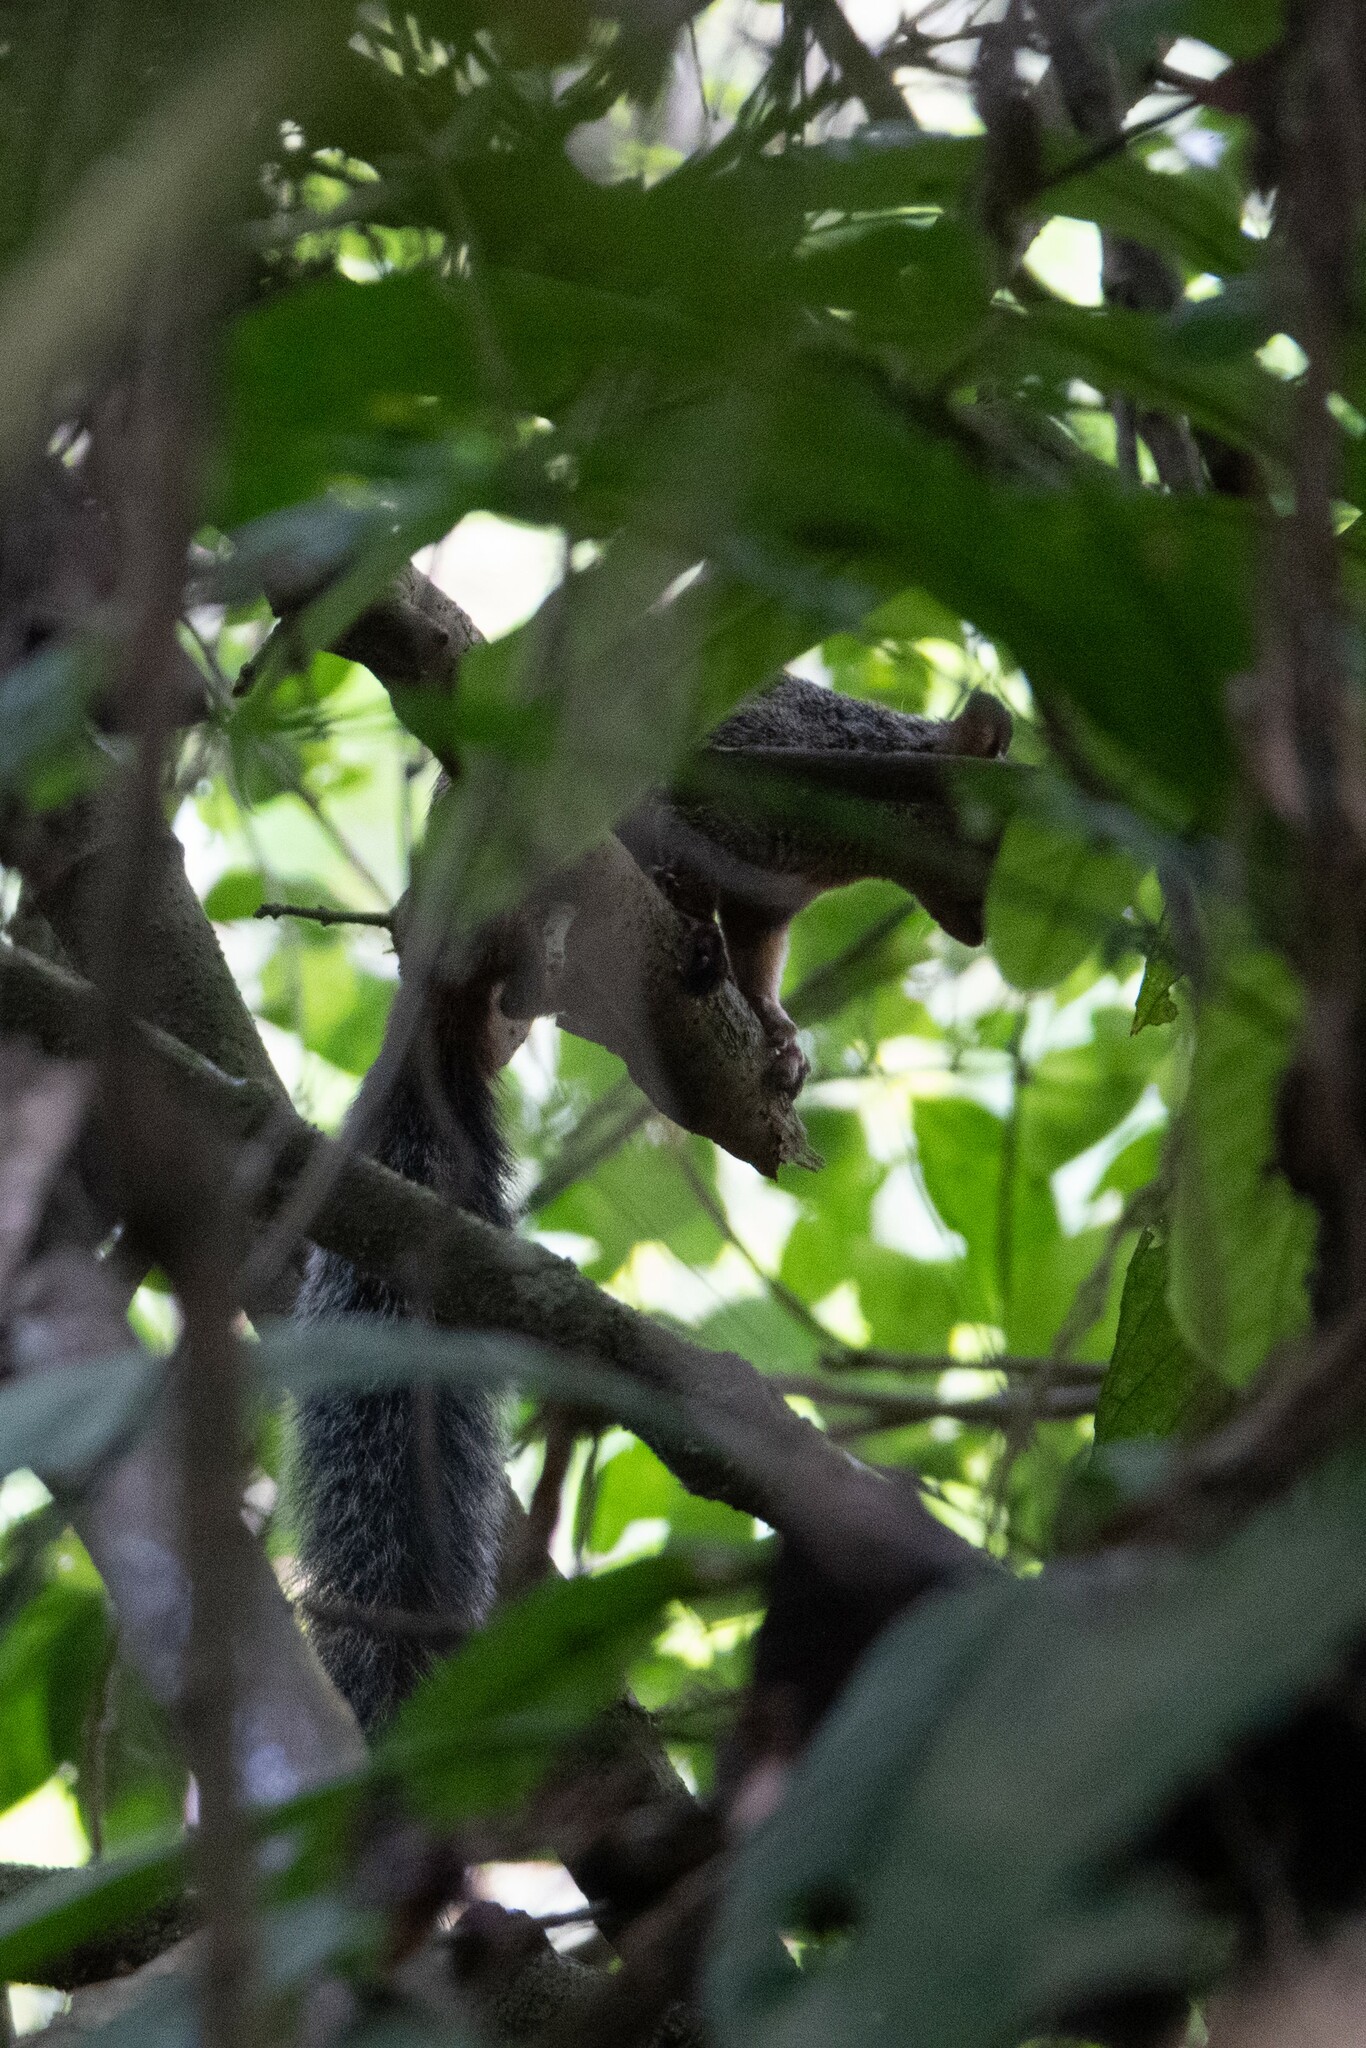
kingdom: Animalia
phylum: Chordata
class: Mammalia
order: Rodentia
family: Sciuridae
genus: Sciurus
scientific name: Sciurus stramineus
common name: Guayaquil squirrel
